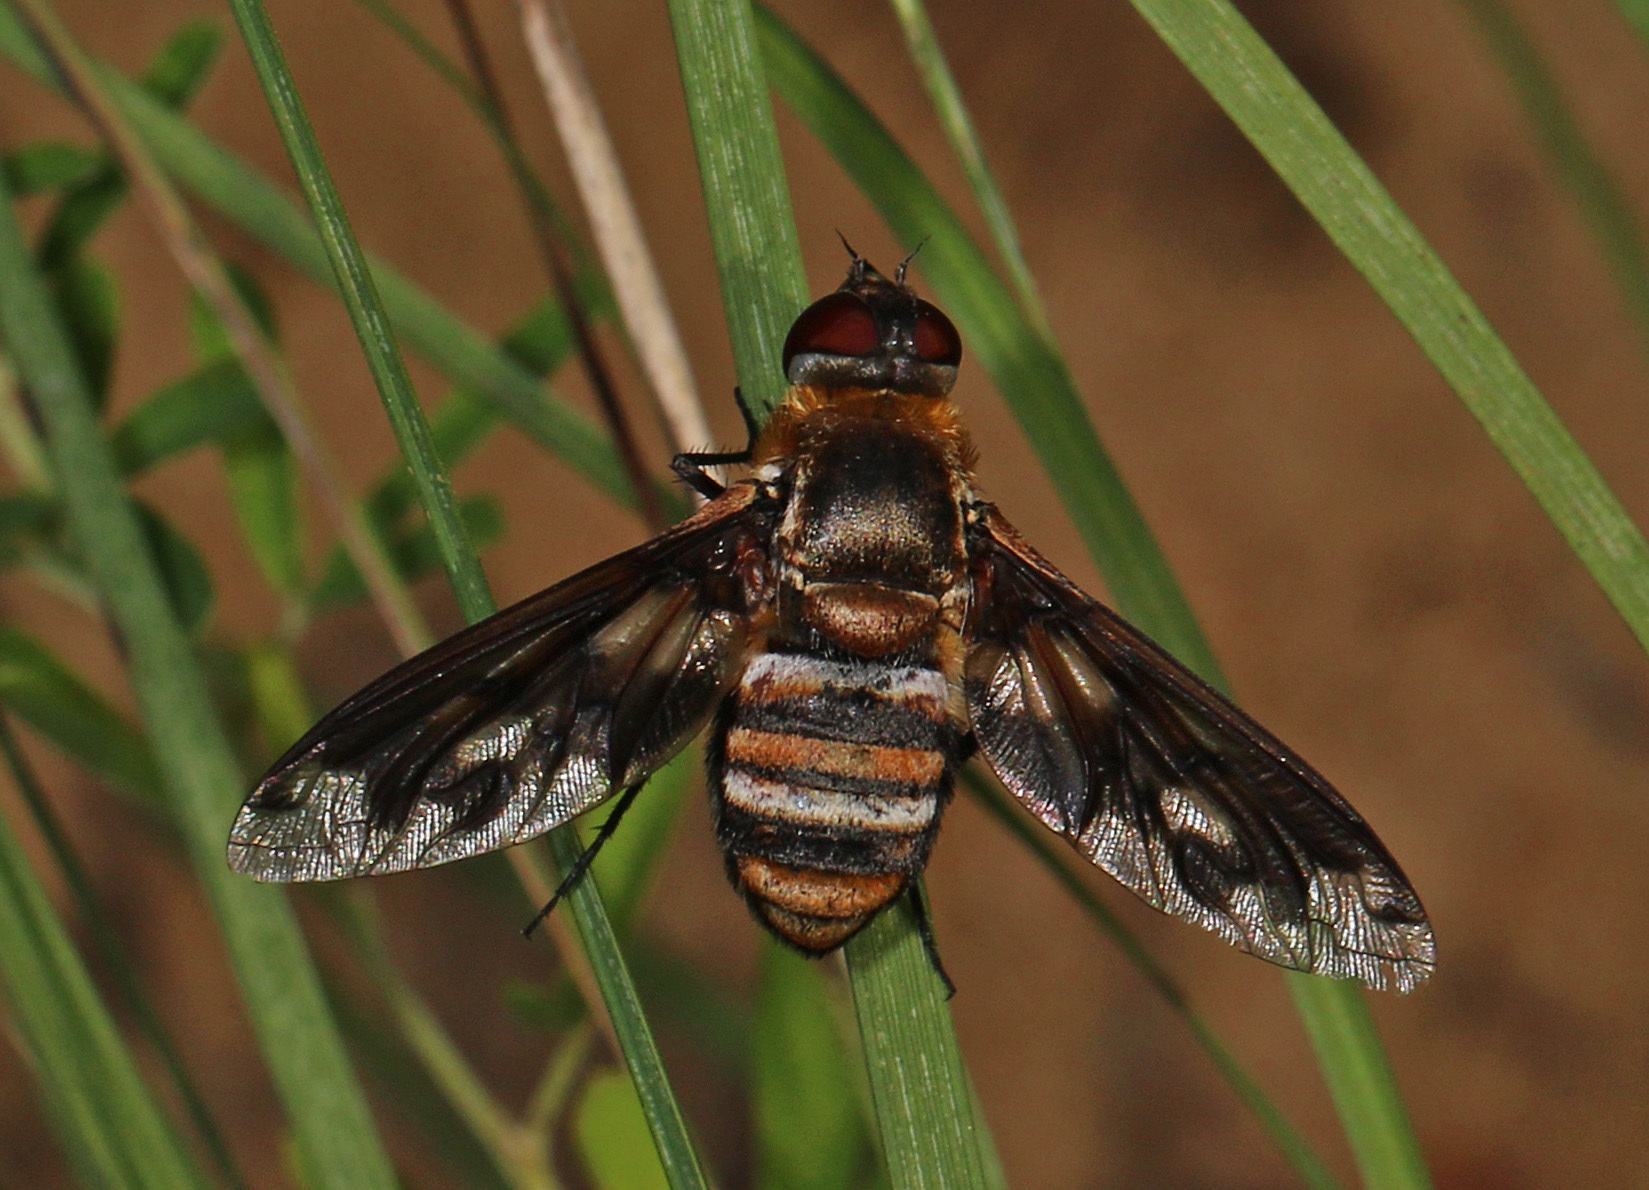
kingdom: Animalia
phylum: Arthropoda
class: Insecta
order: Diptera
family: Bombyliidae
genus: Exoprosopa
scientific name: Exoprosopa fascipennis
